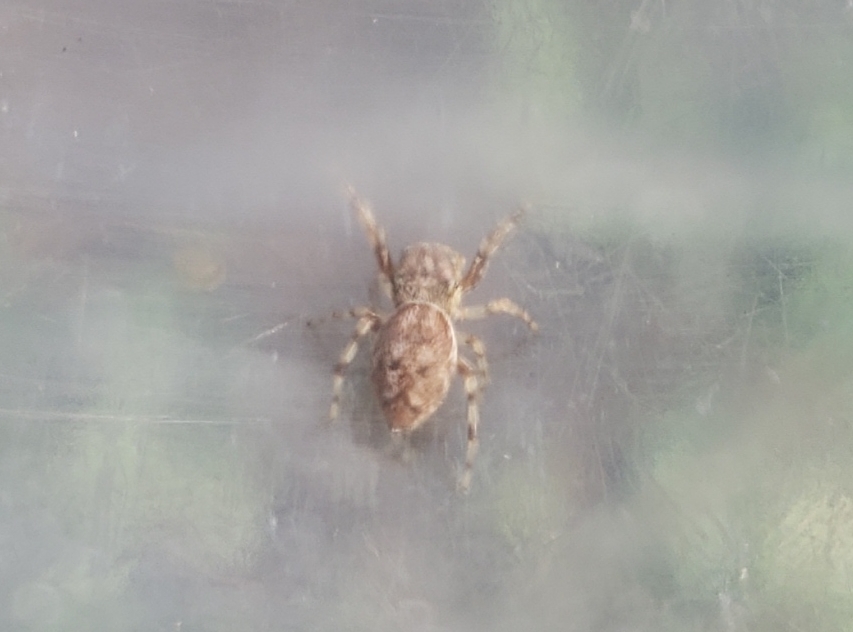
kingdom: Animalia
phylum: Arthropoda
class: Arachnida
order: Araneae
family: Salticidae
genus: Zygoballus
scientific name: Zygoballus rufipes
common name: Jumping spiders
